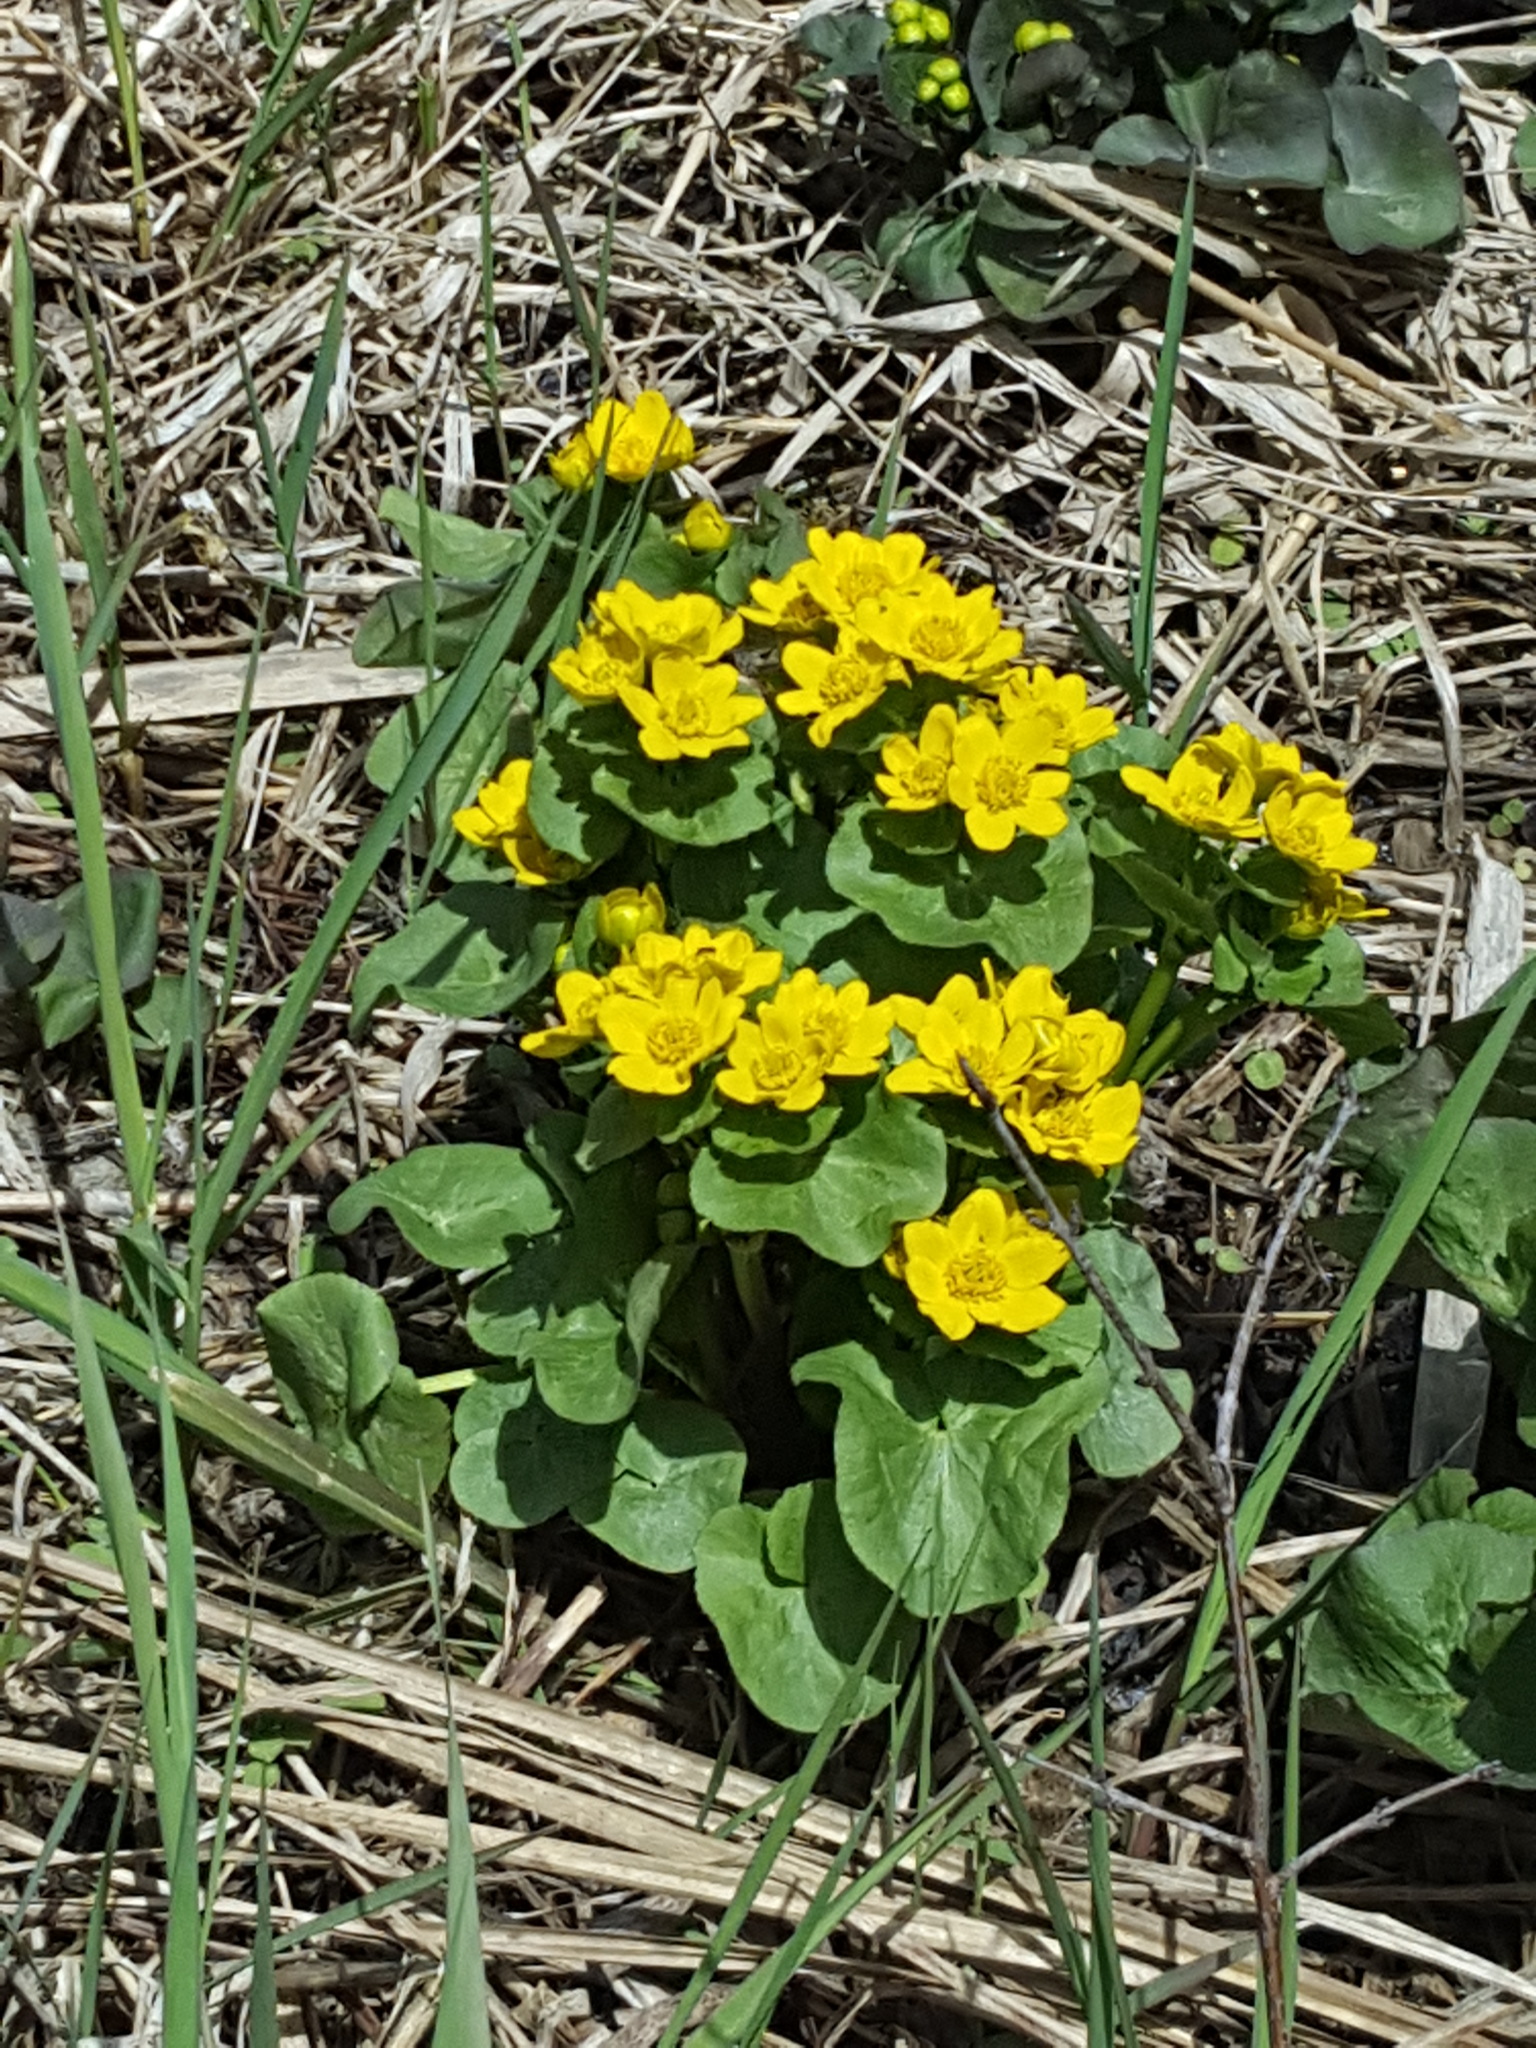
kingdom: Plantae
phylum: Tracheophyta
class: Magnoliopsida
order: Ranunculales
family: Ranunculaceae
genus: Caltha
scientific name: Caltha palustris
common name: Marsh marigold
